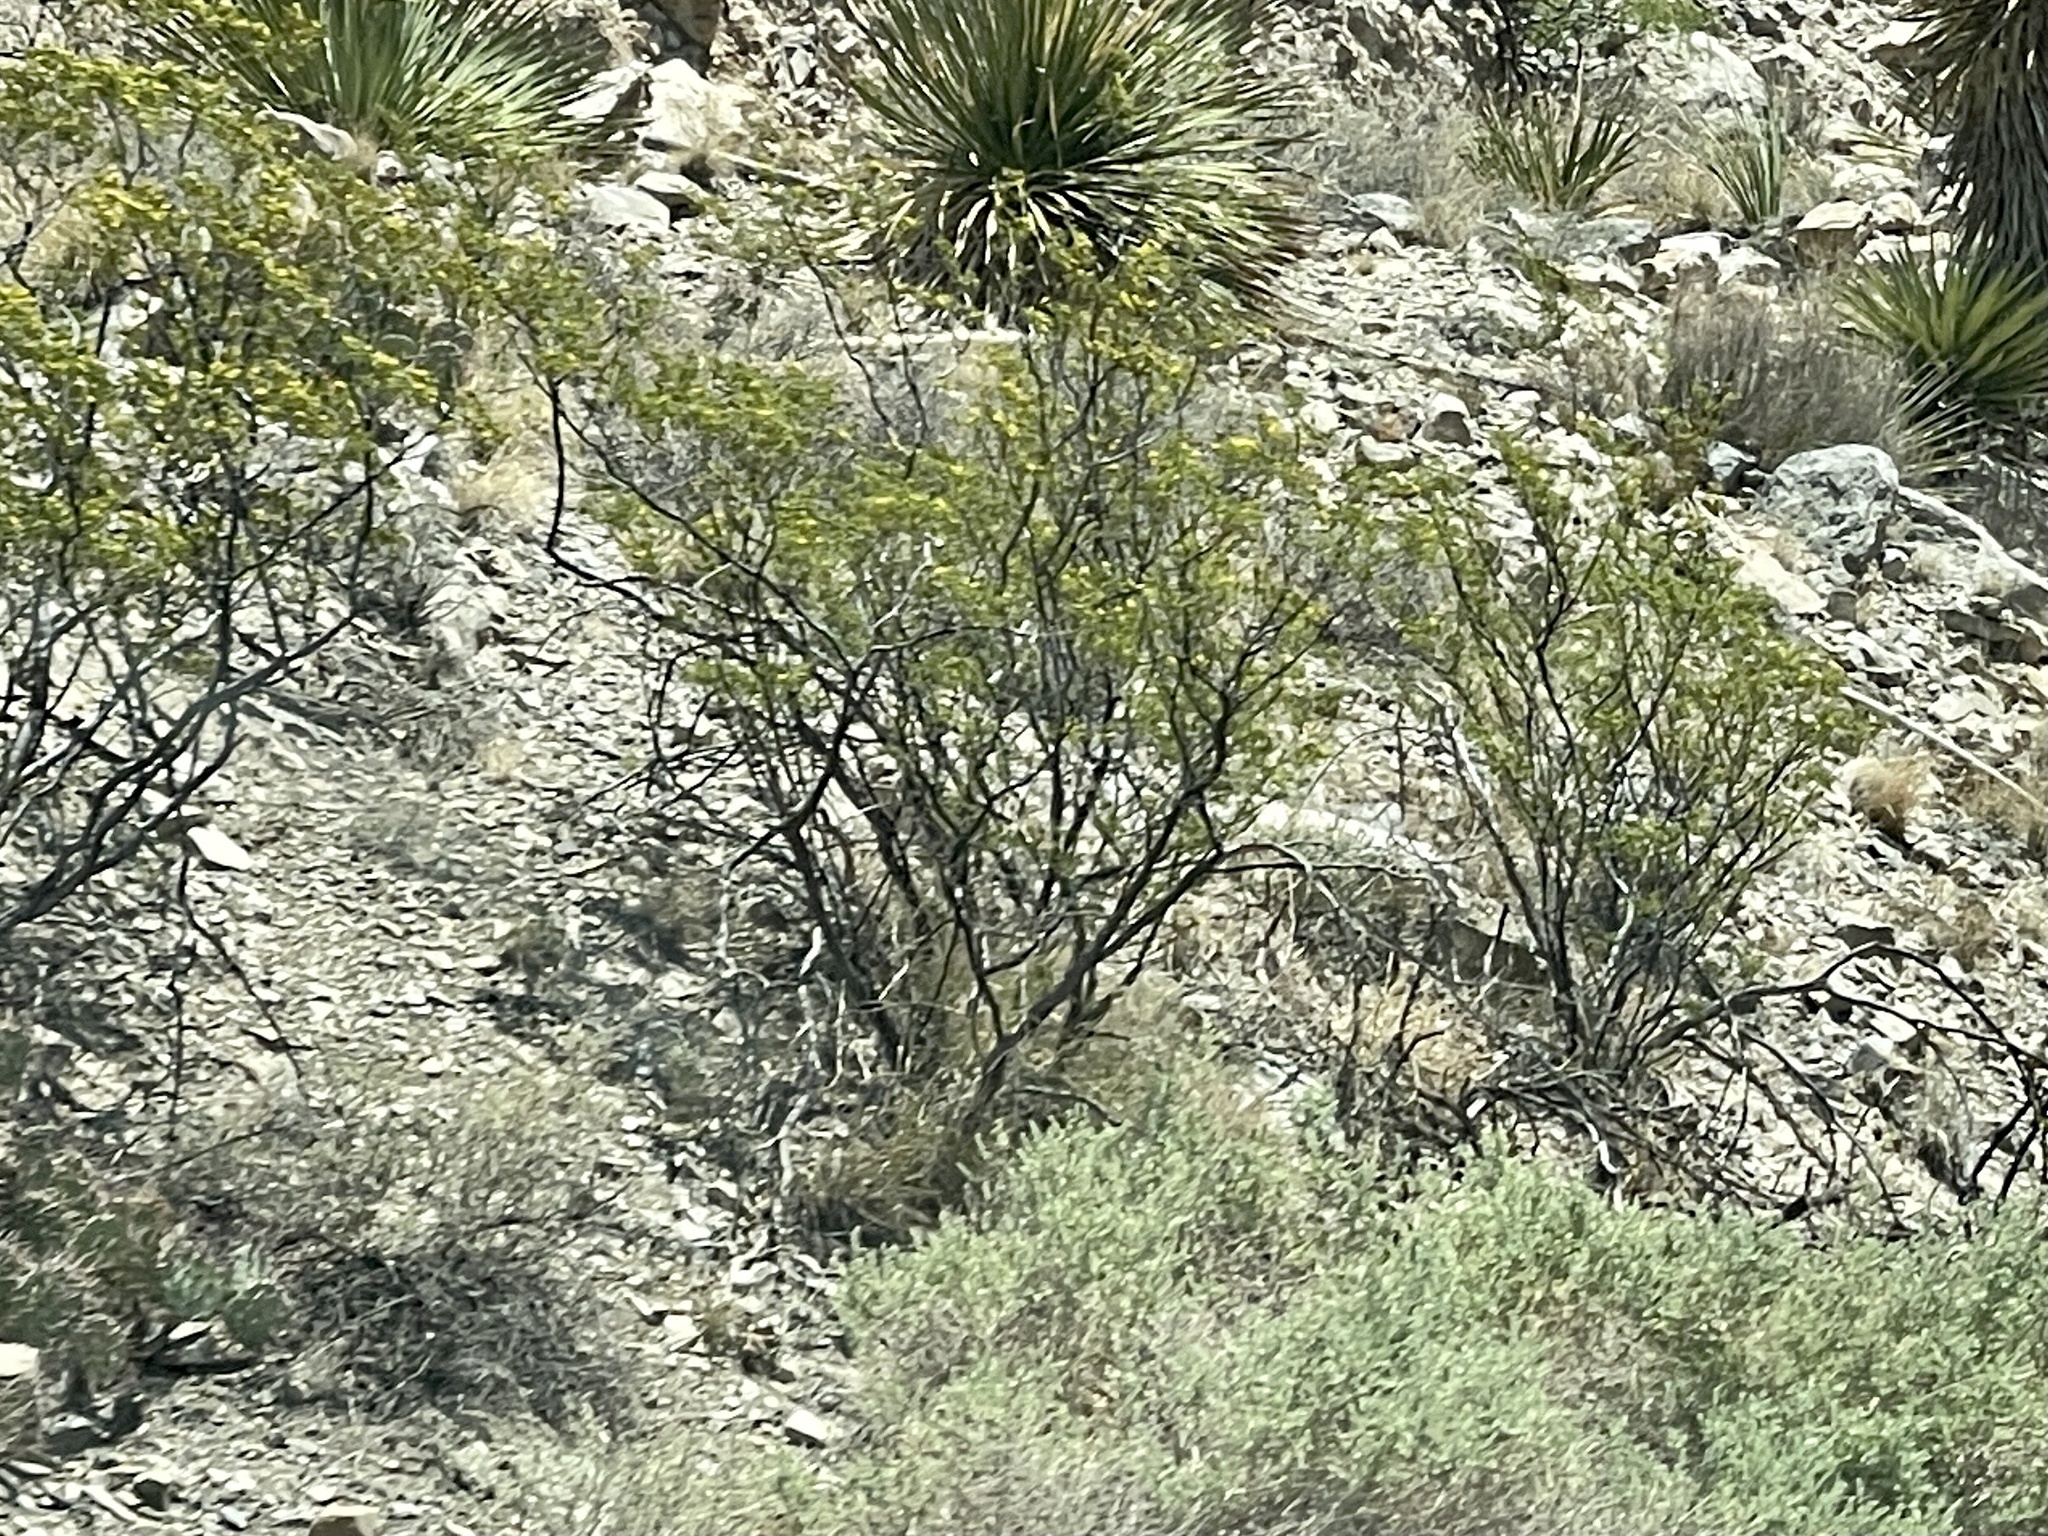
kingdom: Plantae
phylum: Tracheophyta
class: Magnoliopsida
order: Zygophyllales
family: Zygophyllaceae
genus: Larrea
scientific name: Larrea tridentata
